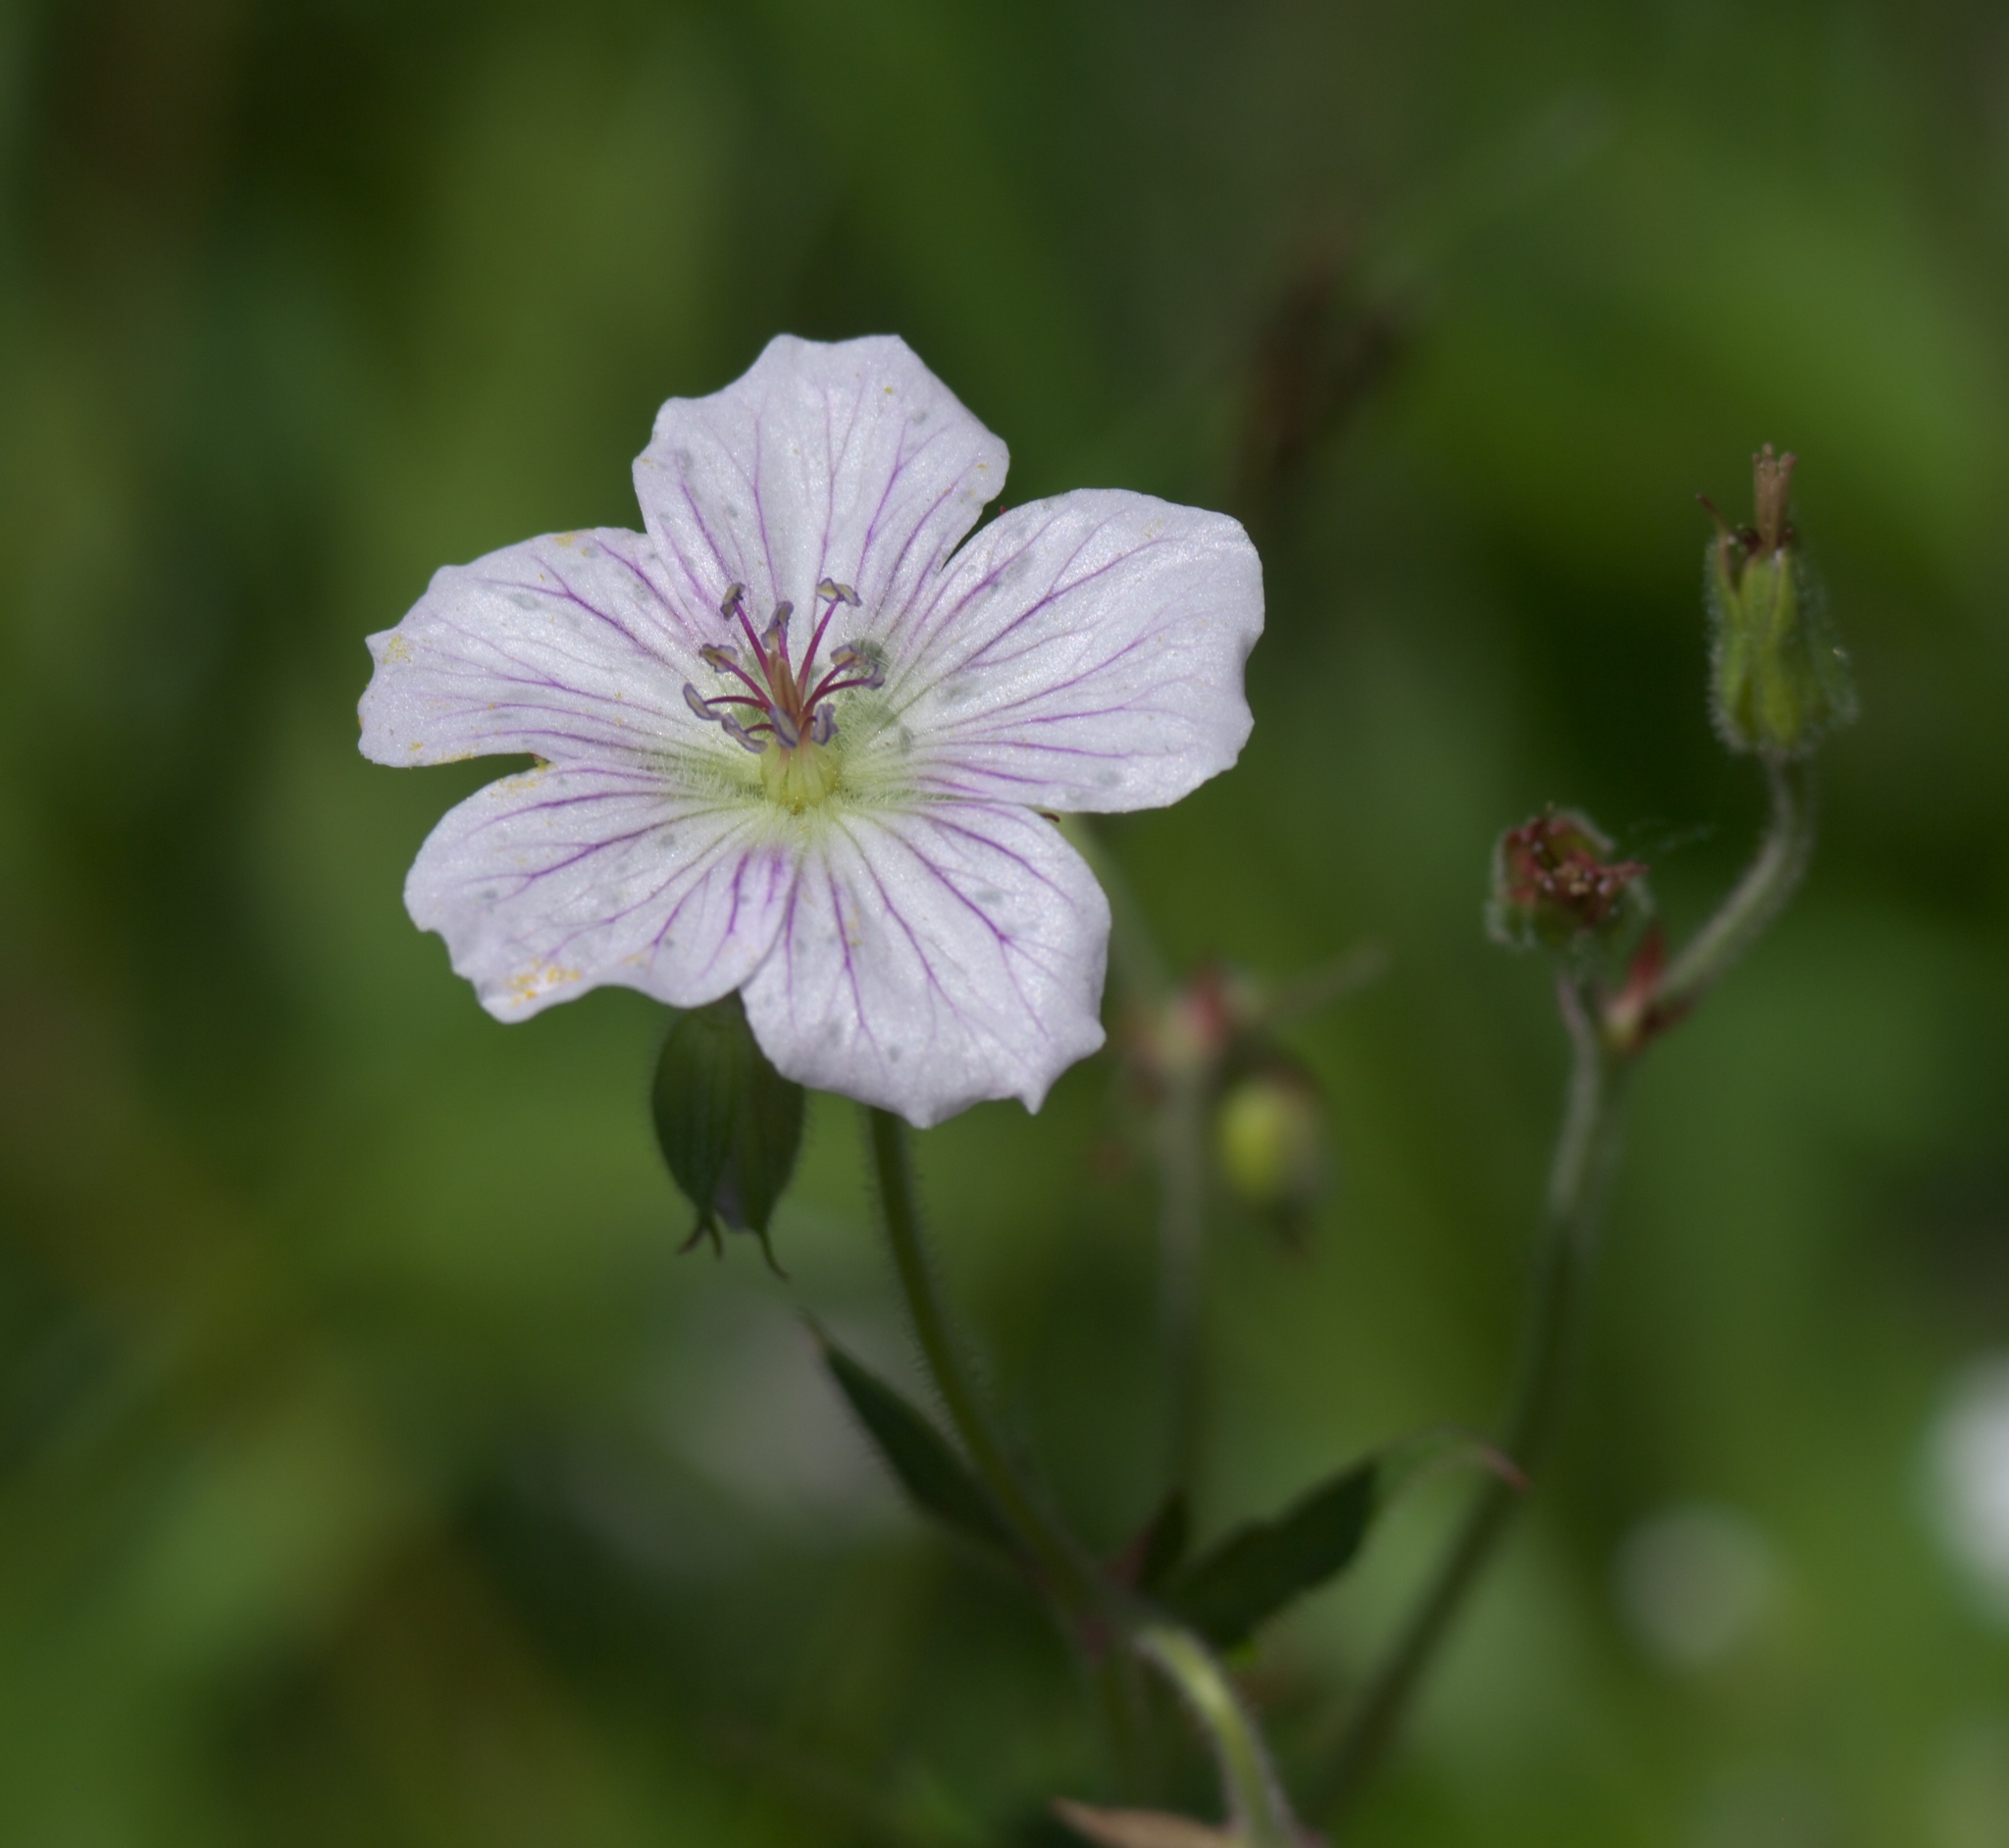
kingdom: Plantae
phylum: Tracheophyta
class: Magnoliopsida
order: Geraniales
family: Geraniaceae
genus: Geranium
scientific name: Geranium richardsonii
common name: Richardson's crane's-bill
